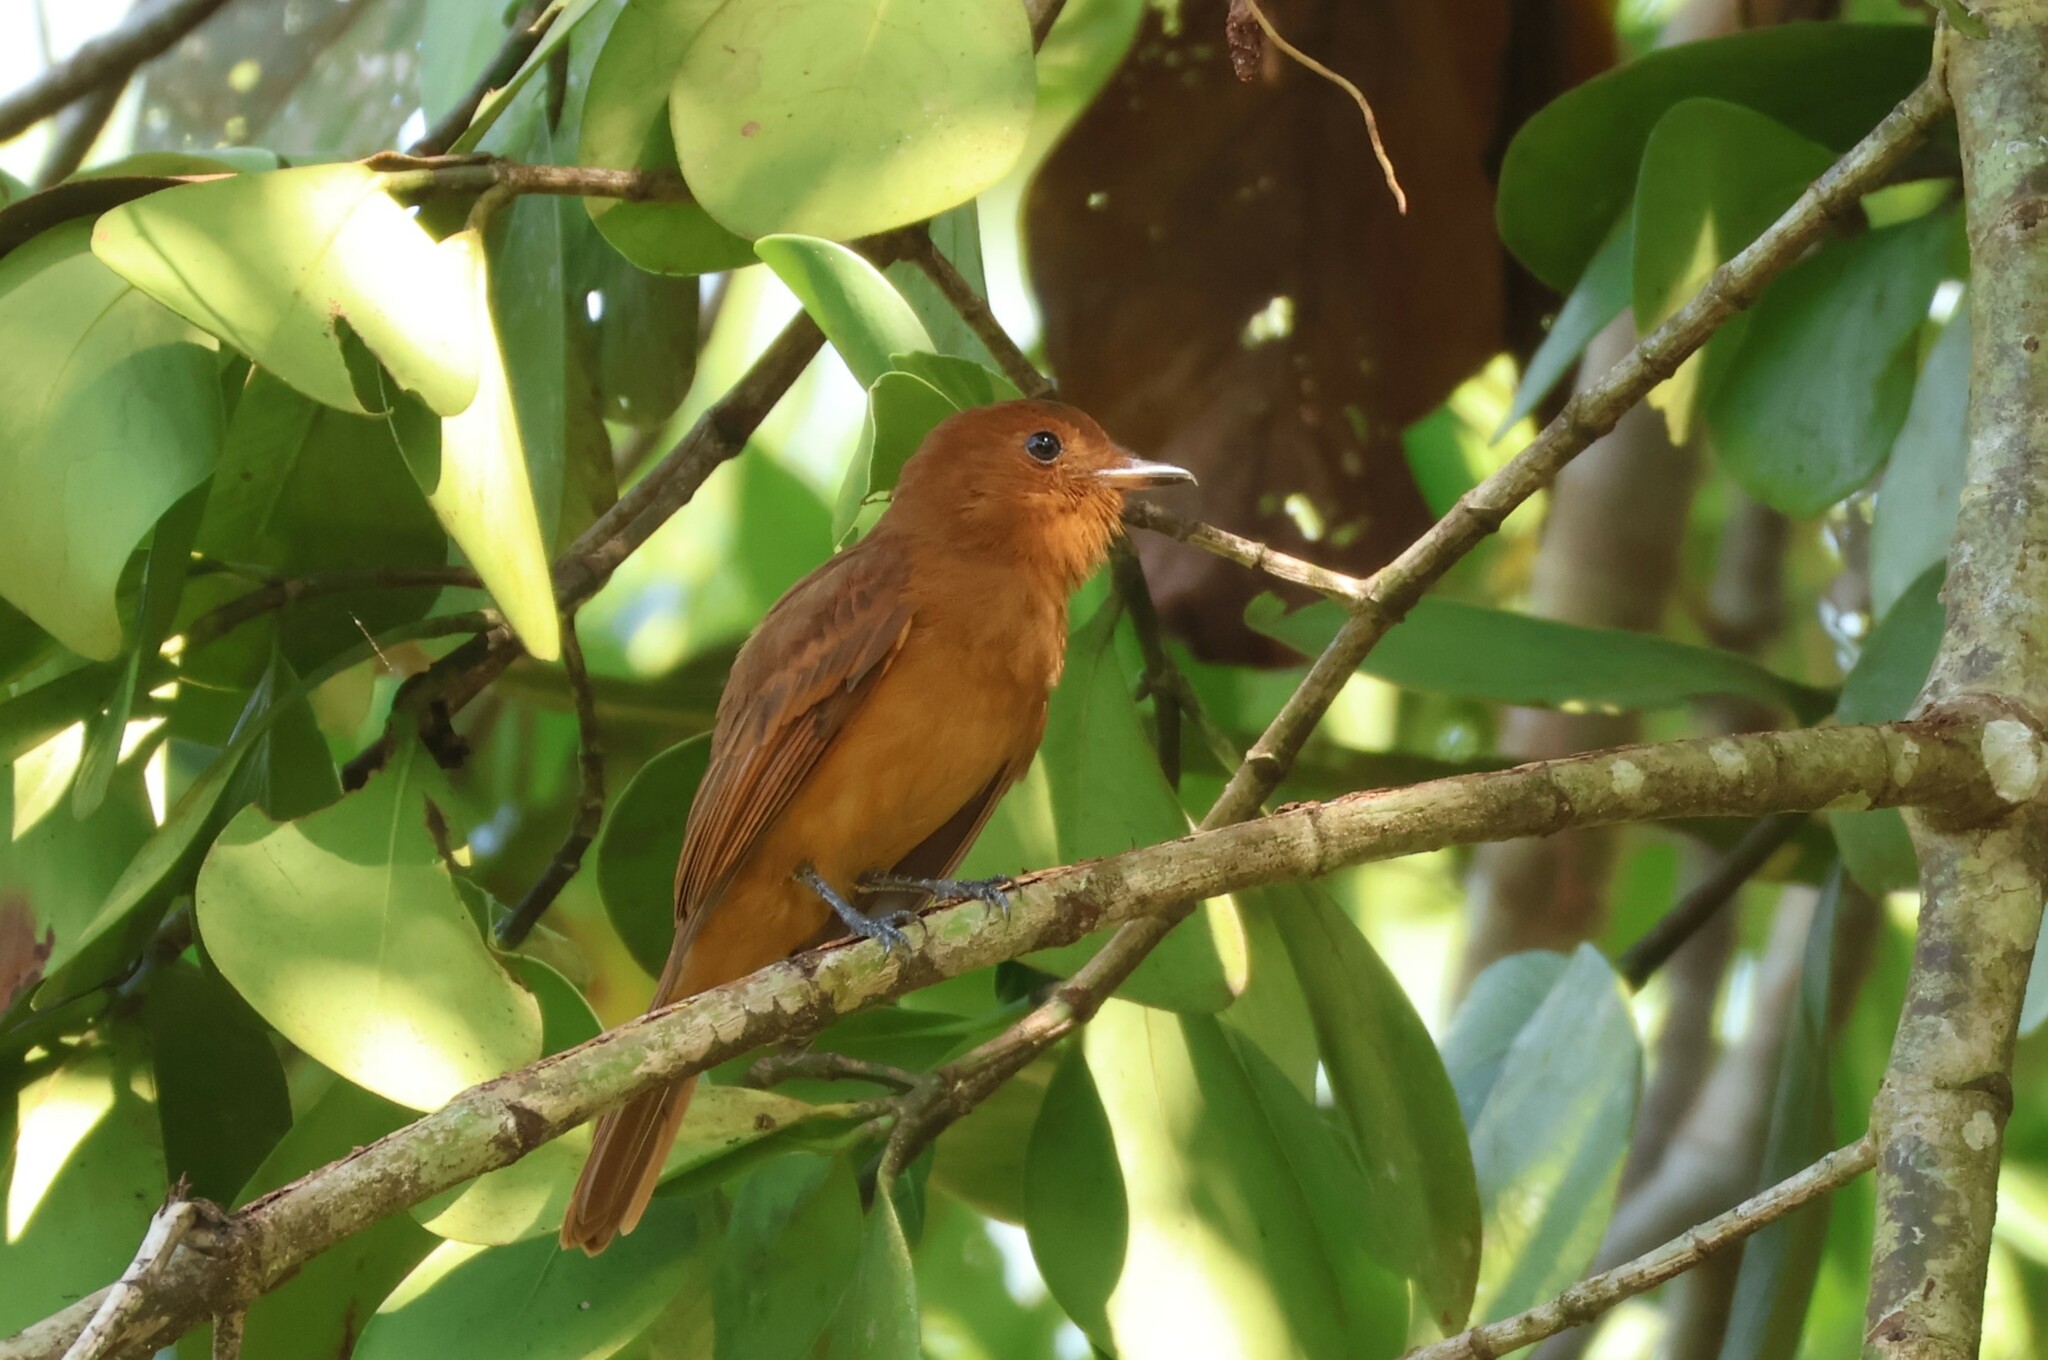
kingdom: Animalia
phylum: Chordata
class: Aves
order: Passeriformes
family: Tyrannidae
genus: Rhytipterna
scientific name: Rhytipterna holerythra
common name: Rufous mourner
